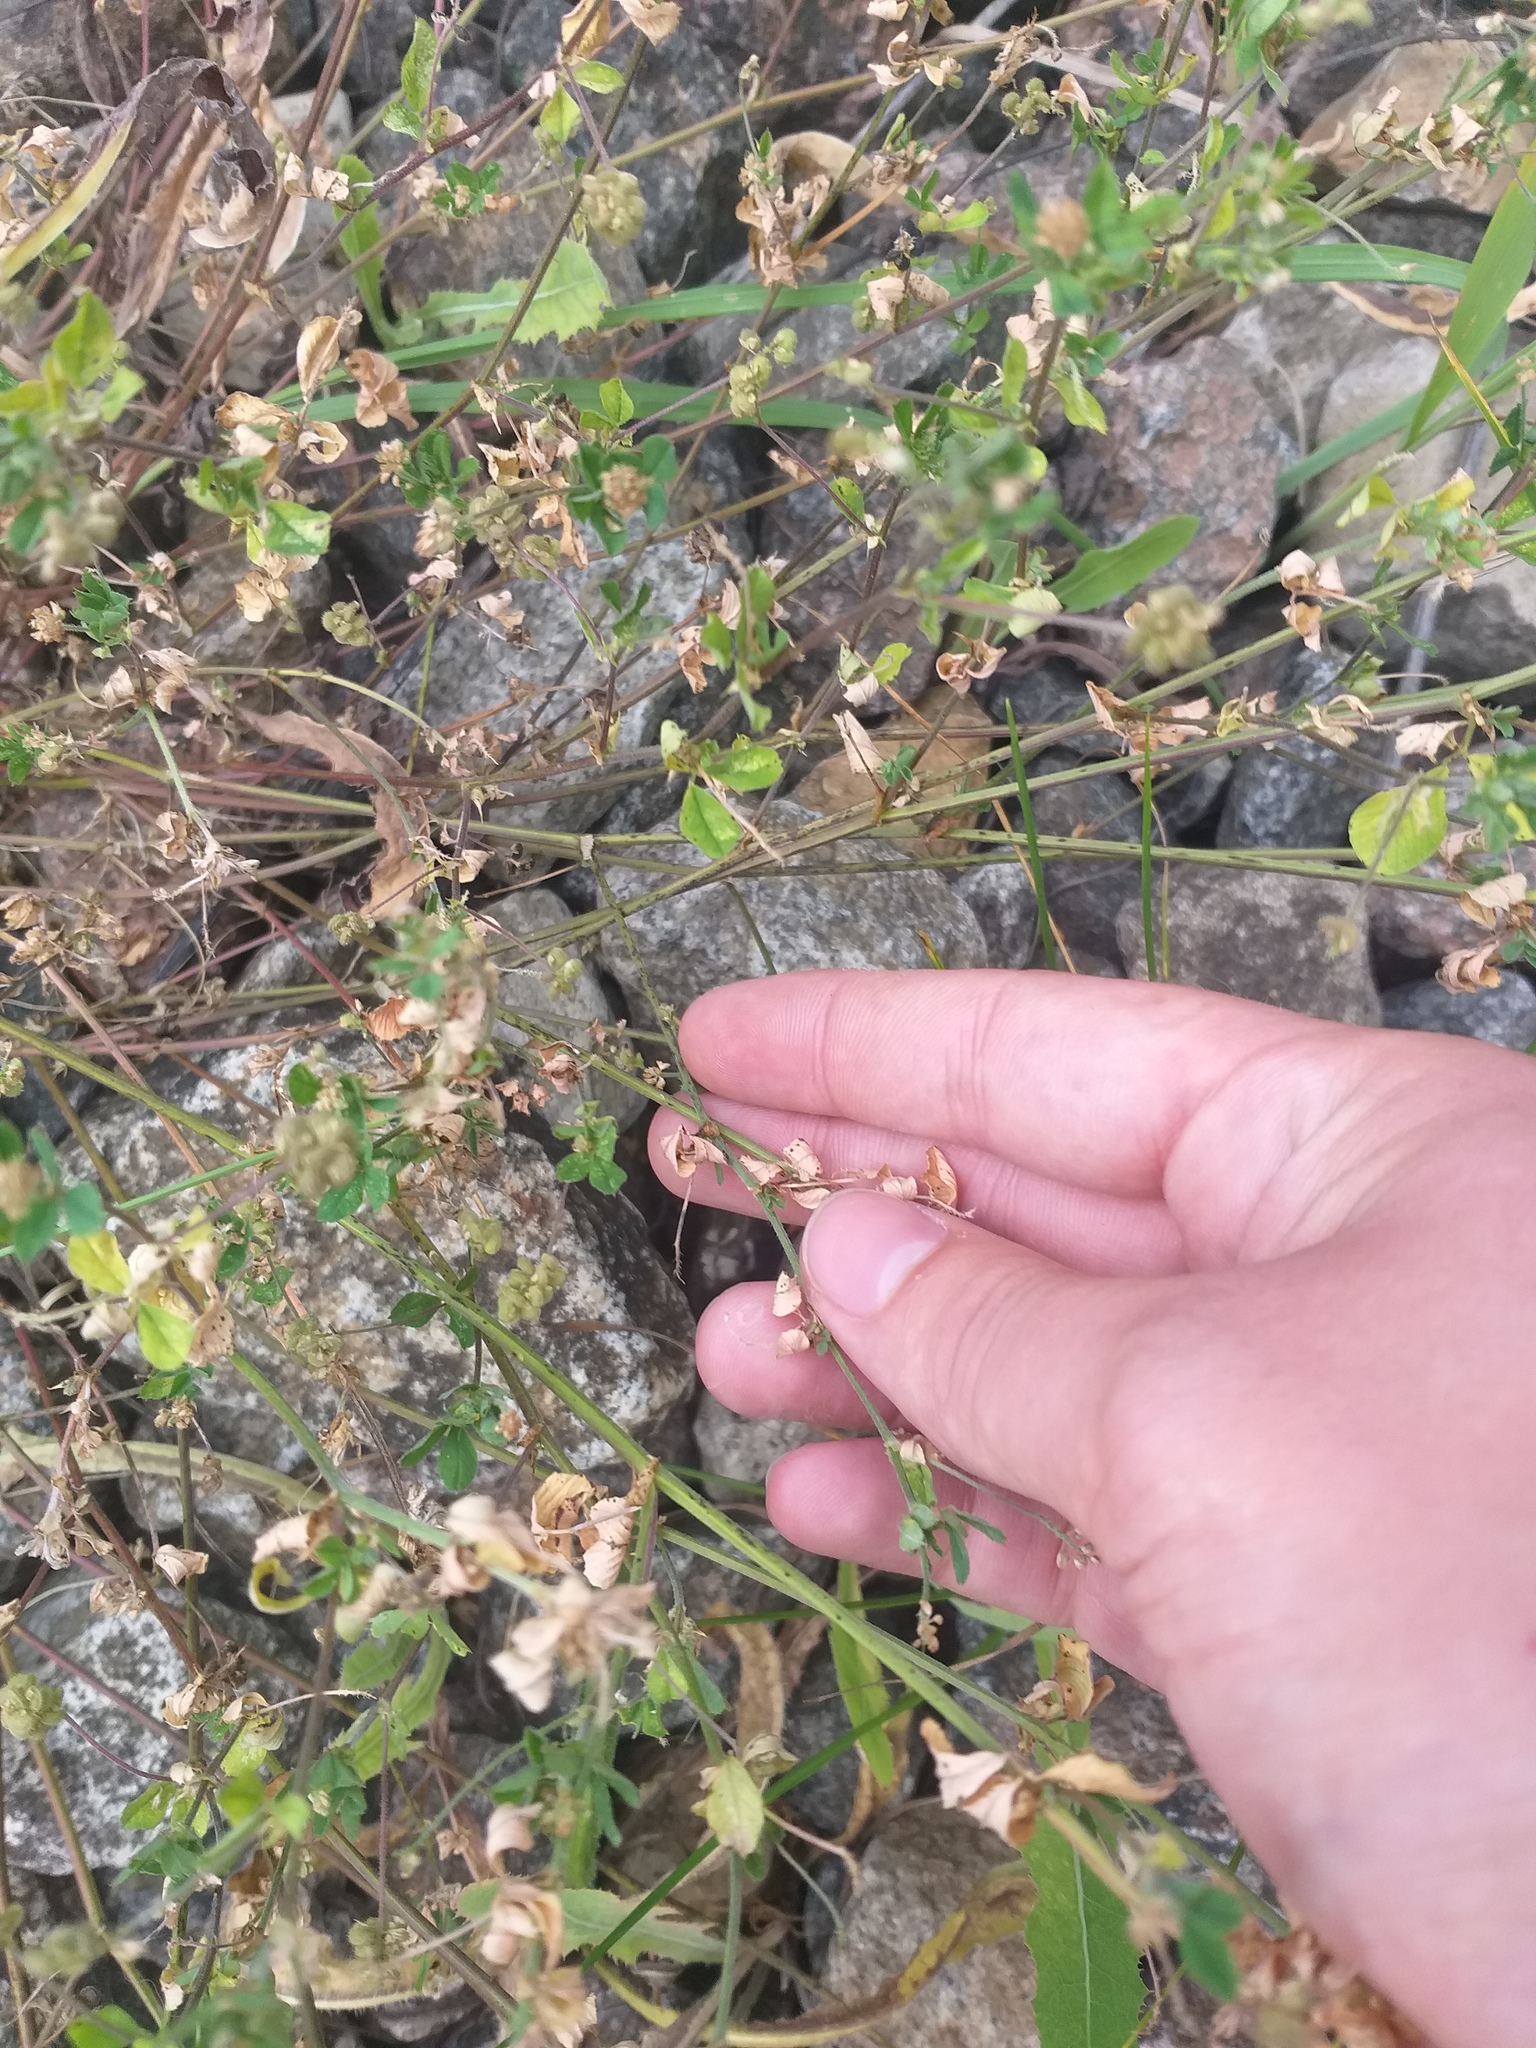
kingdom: Plantae
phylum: Tracheophyta
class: Magnoliopsida
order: Fabales
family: Fabaceae
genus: Medicago
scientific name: Medicago lupulina
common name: Black medick
